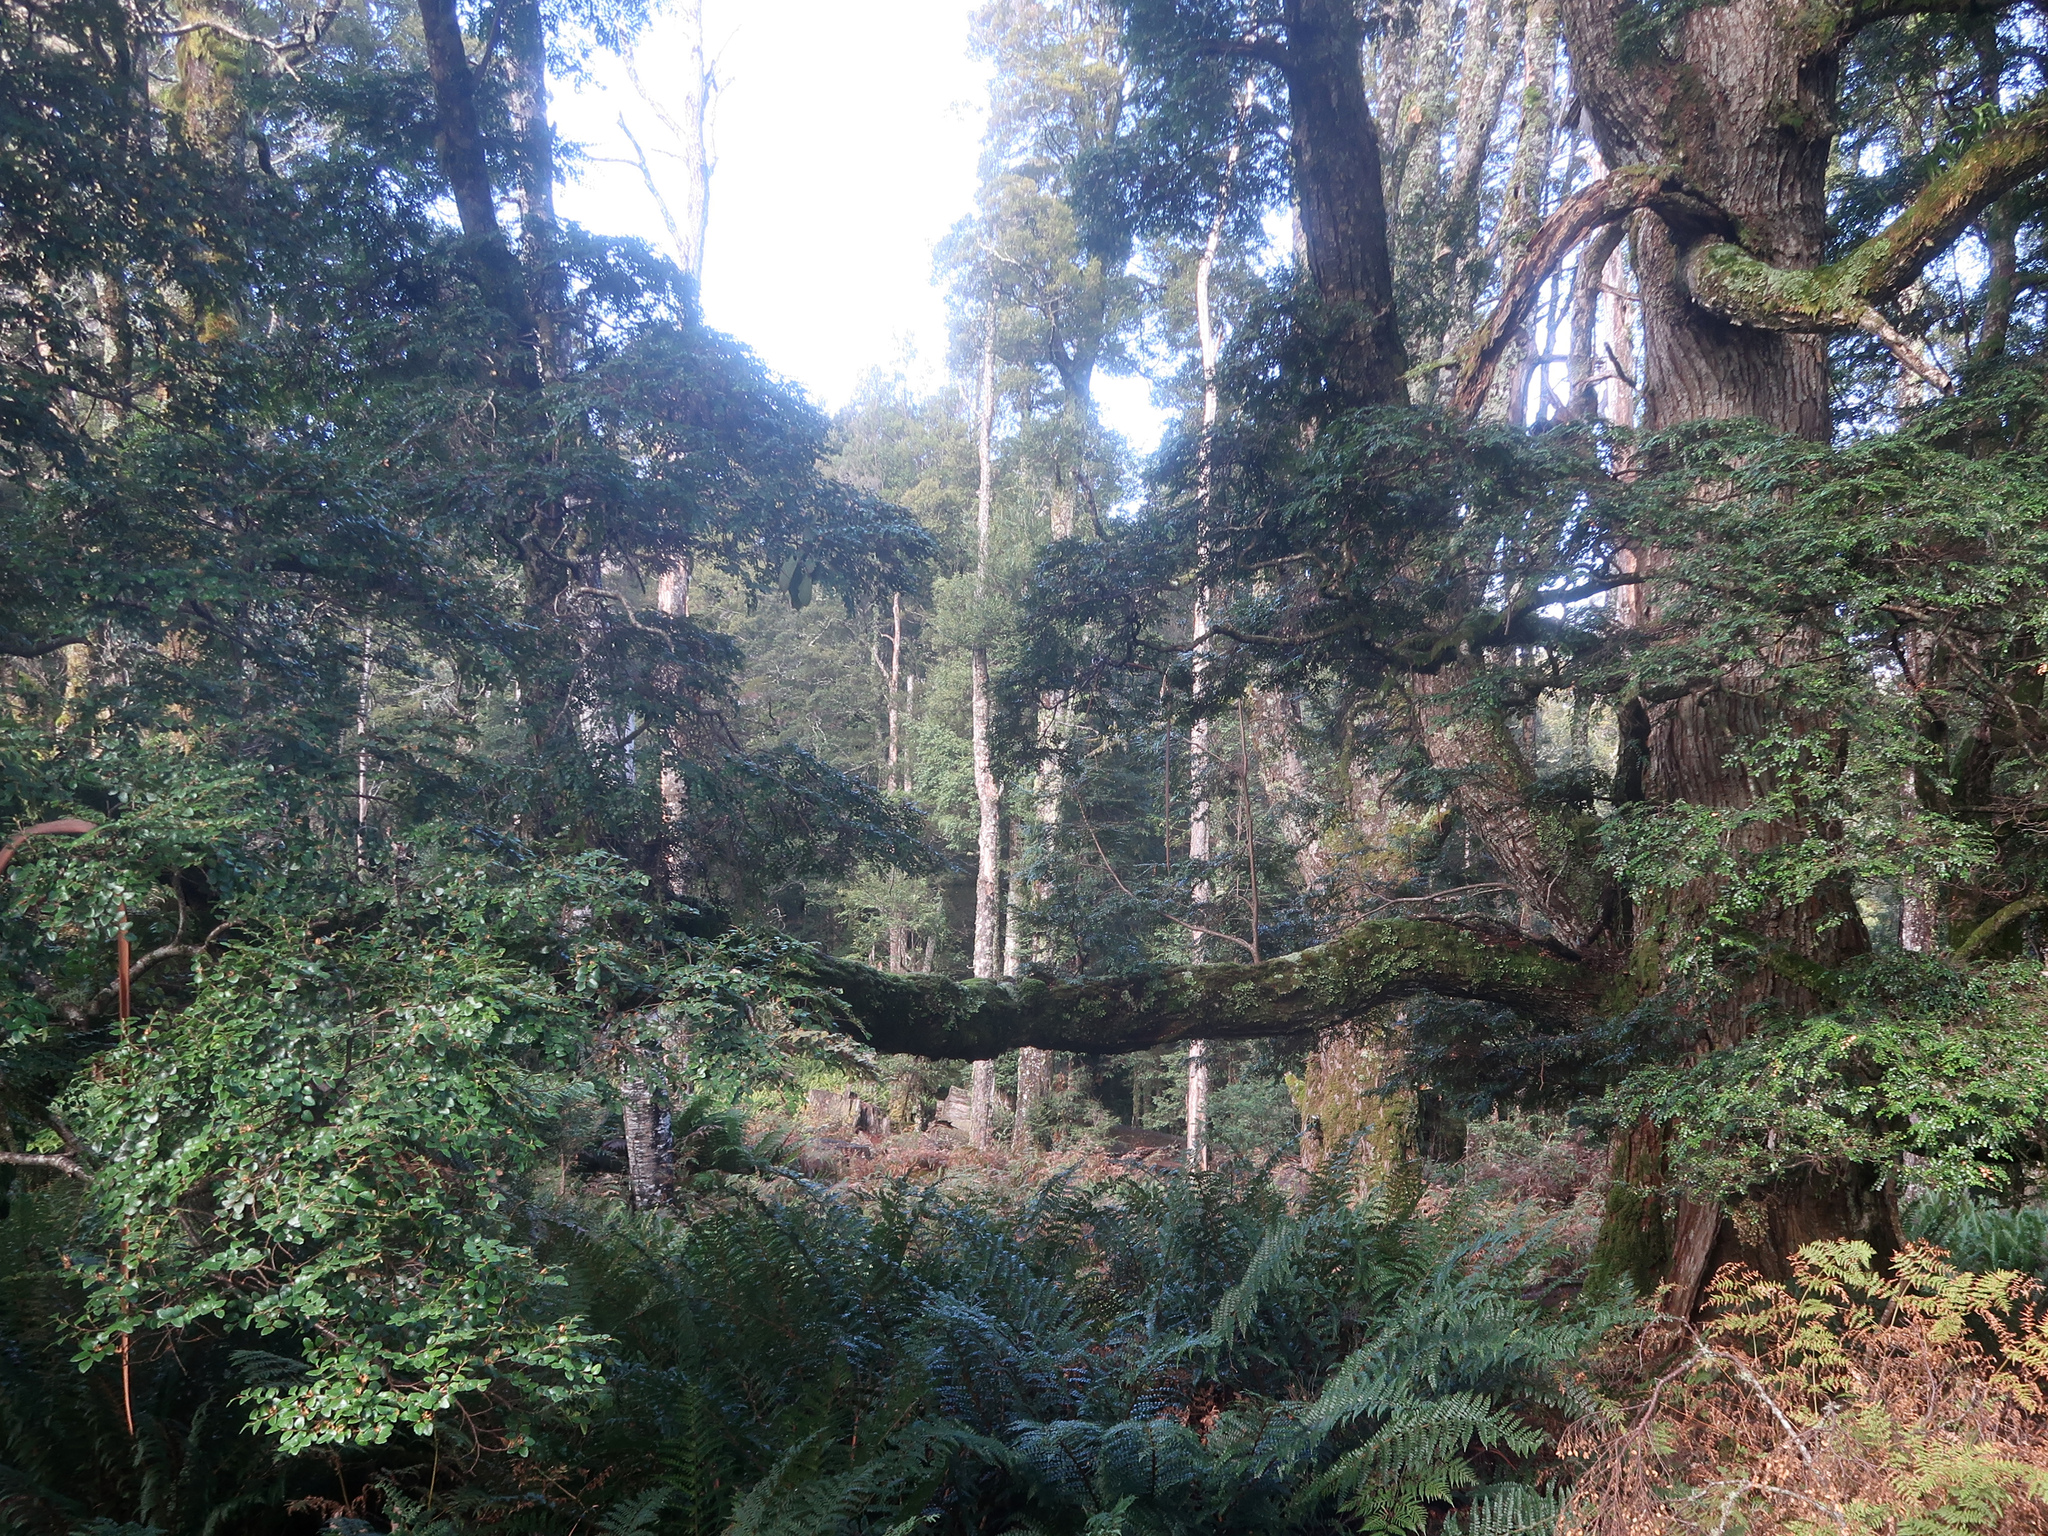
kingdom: Plantae
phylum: Tracheophyta
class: Magnoliopsida
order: Fagales
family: Nothofagaceae
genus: Nothofagus
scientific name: Nothofagus cunninghamii
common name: Myrtle beech
